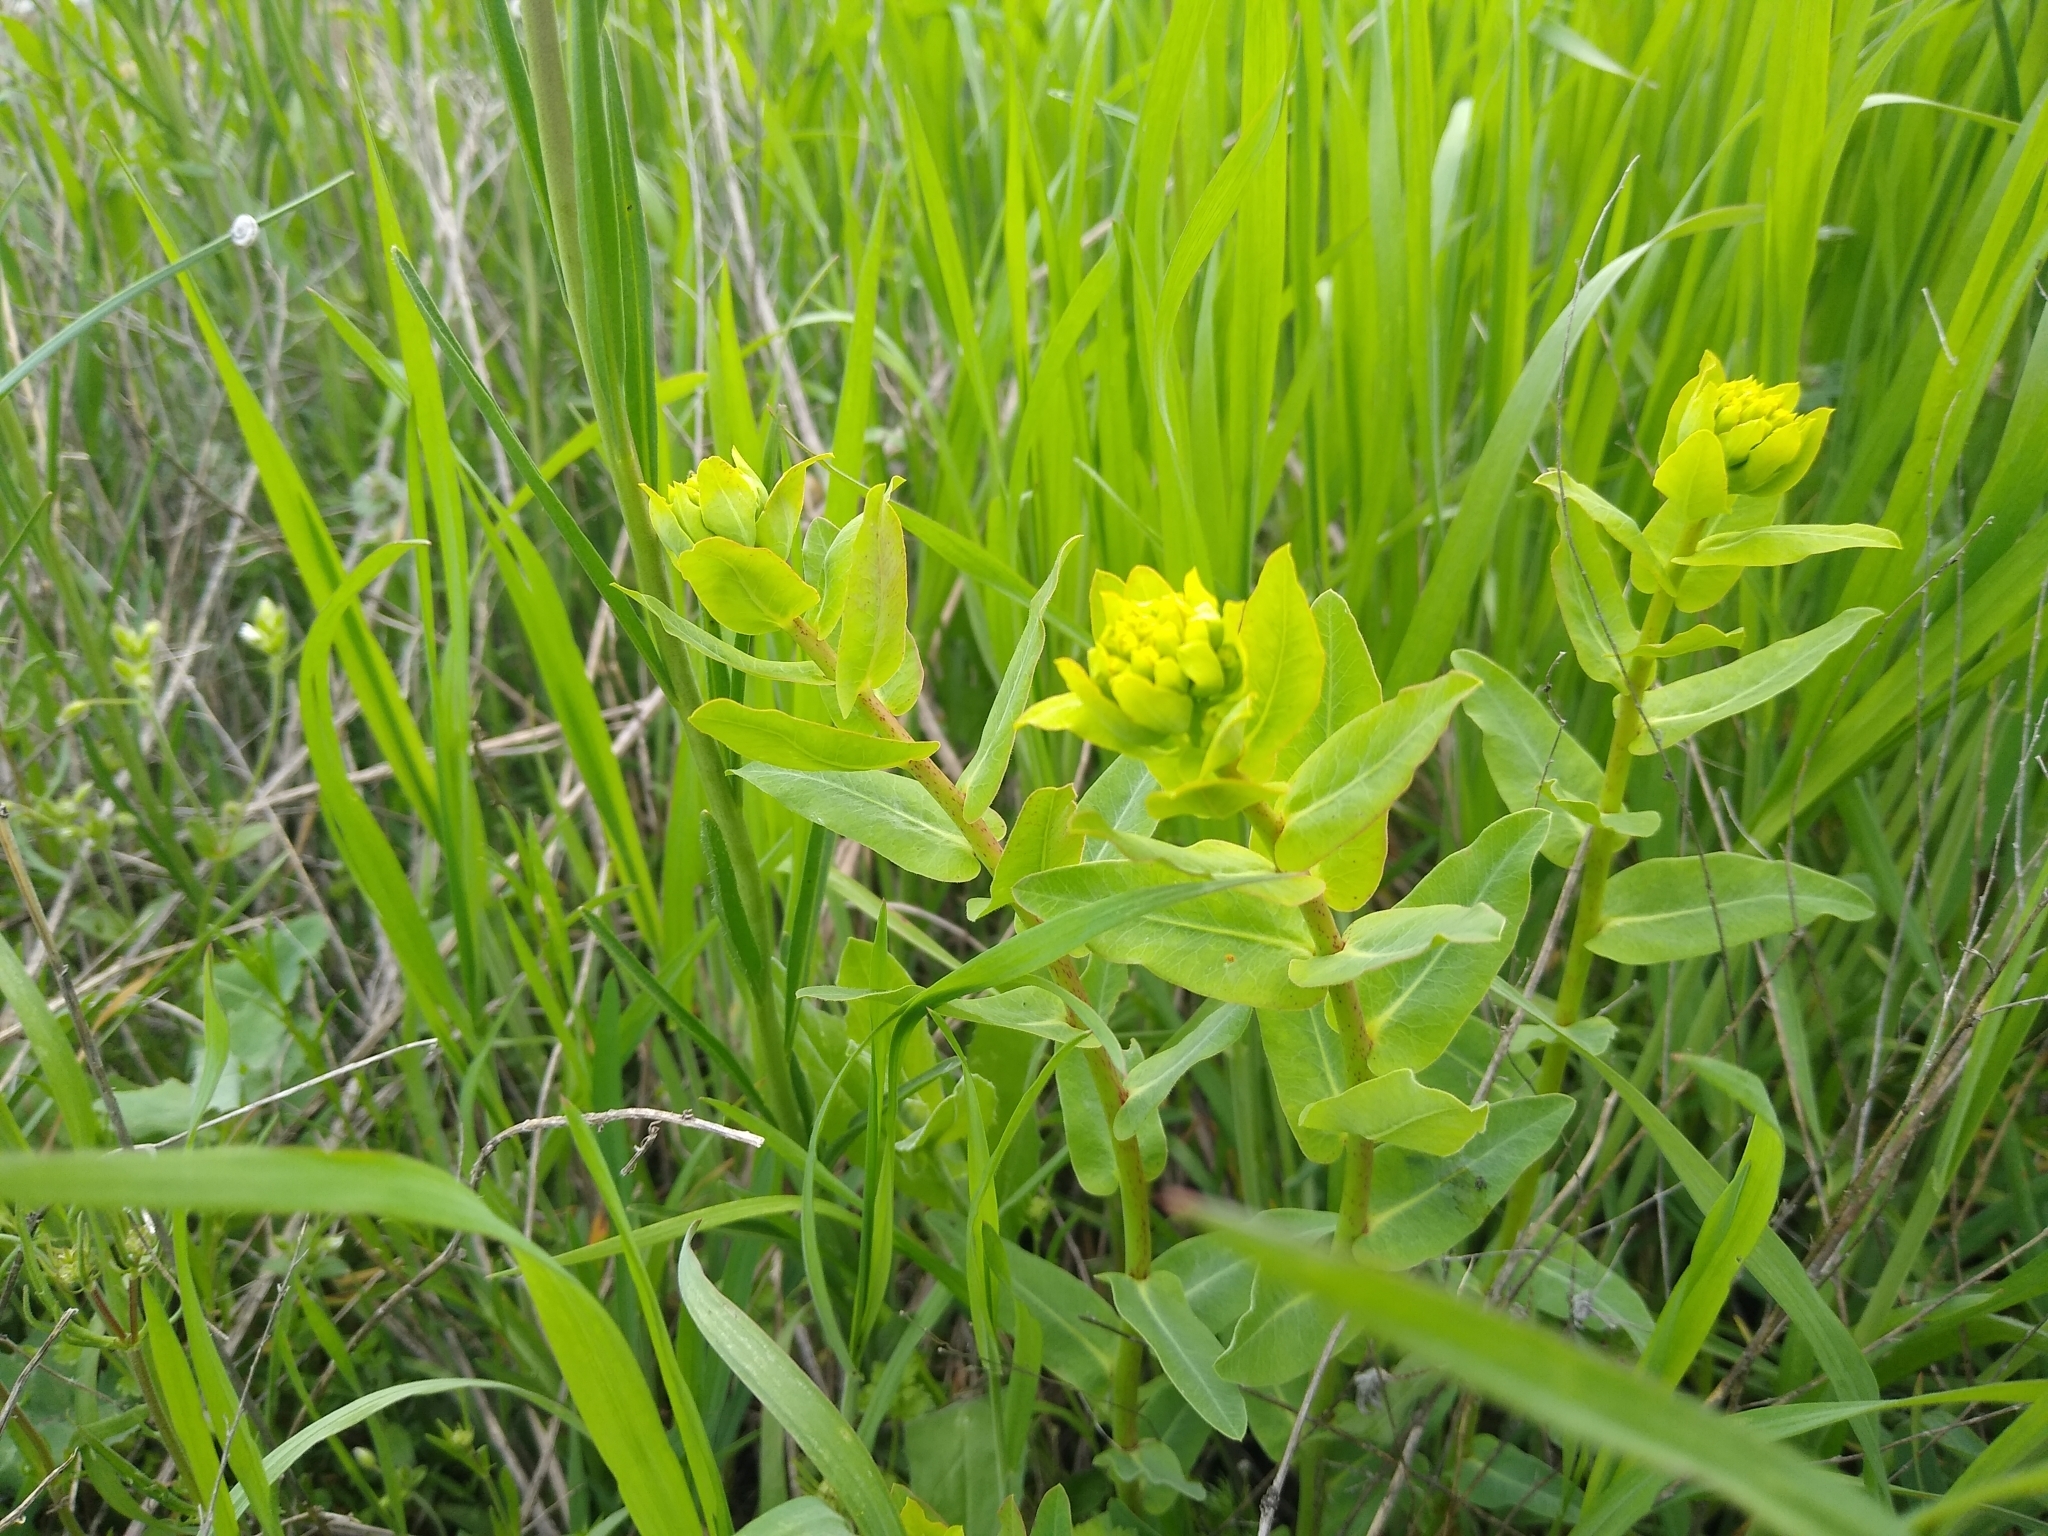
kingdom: Plantae
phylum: Tracheophyta
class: Magnoliopsida
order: Malpighiales
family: Euphorbiaceae
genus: Euphorbia
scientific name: Euphorbia agraria
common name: Urban spurge
